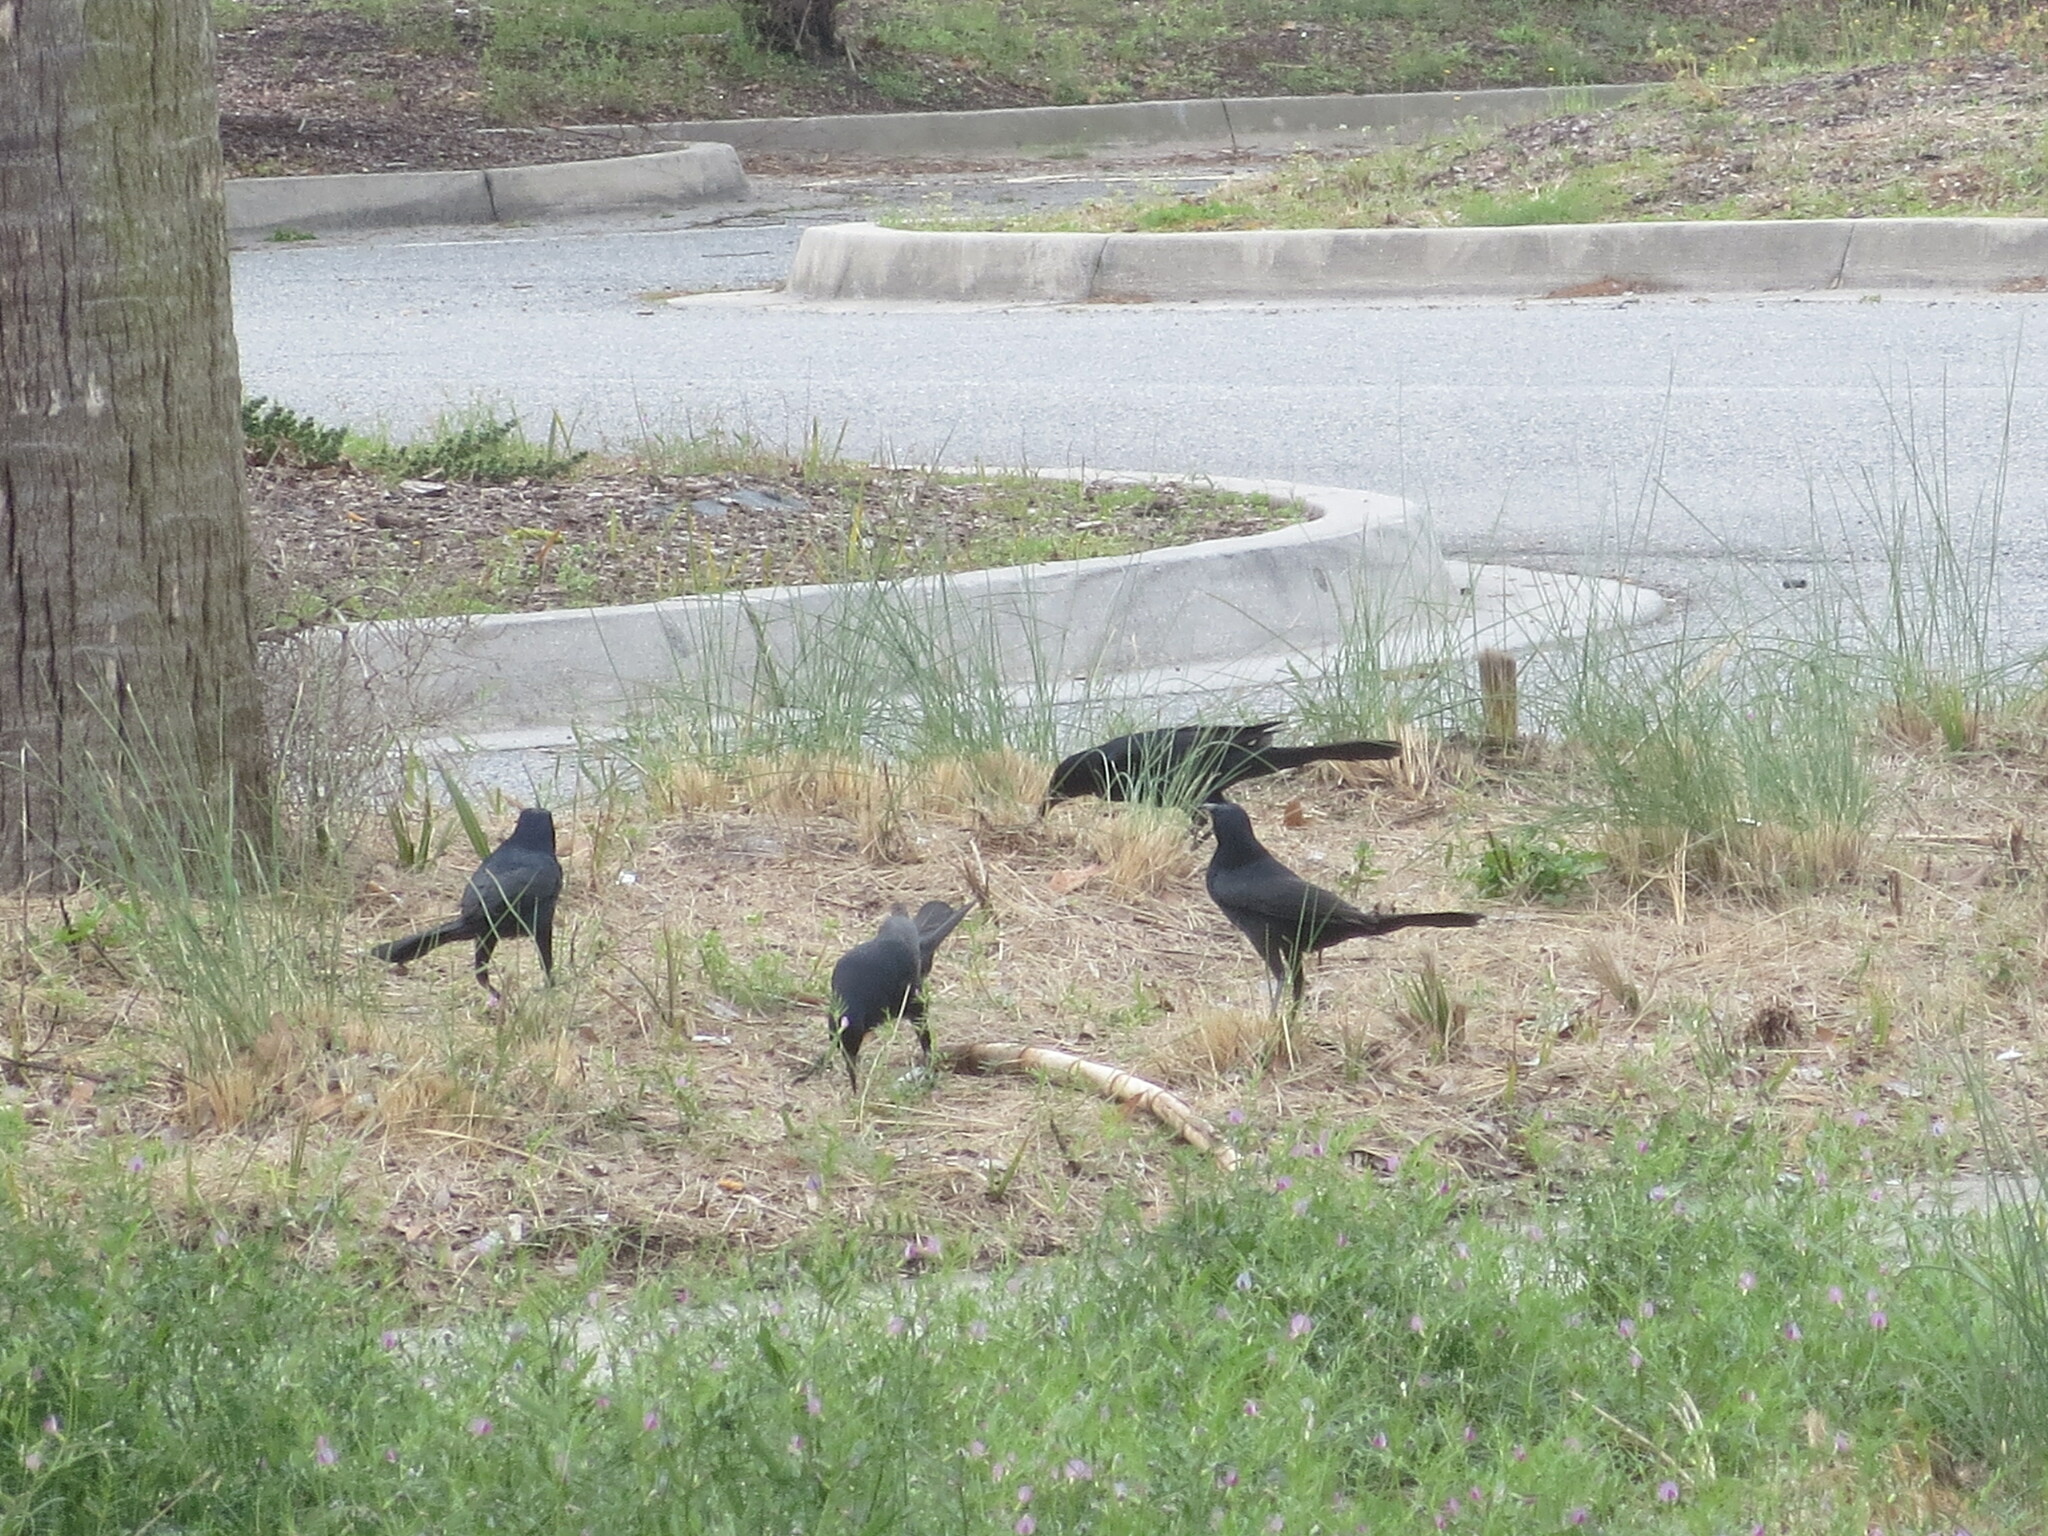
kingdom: Animalia
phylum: Chordata
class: Aves
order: Passeriformes
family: Icteridae
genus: Quiscalus
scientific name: Quiscalus major
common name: Boat-tailed grackle
